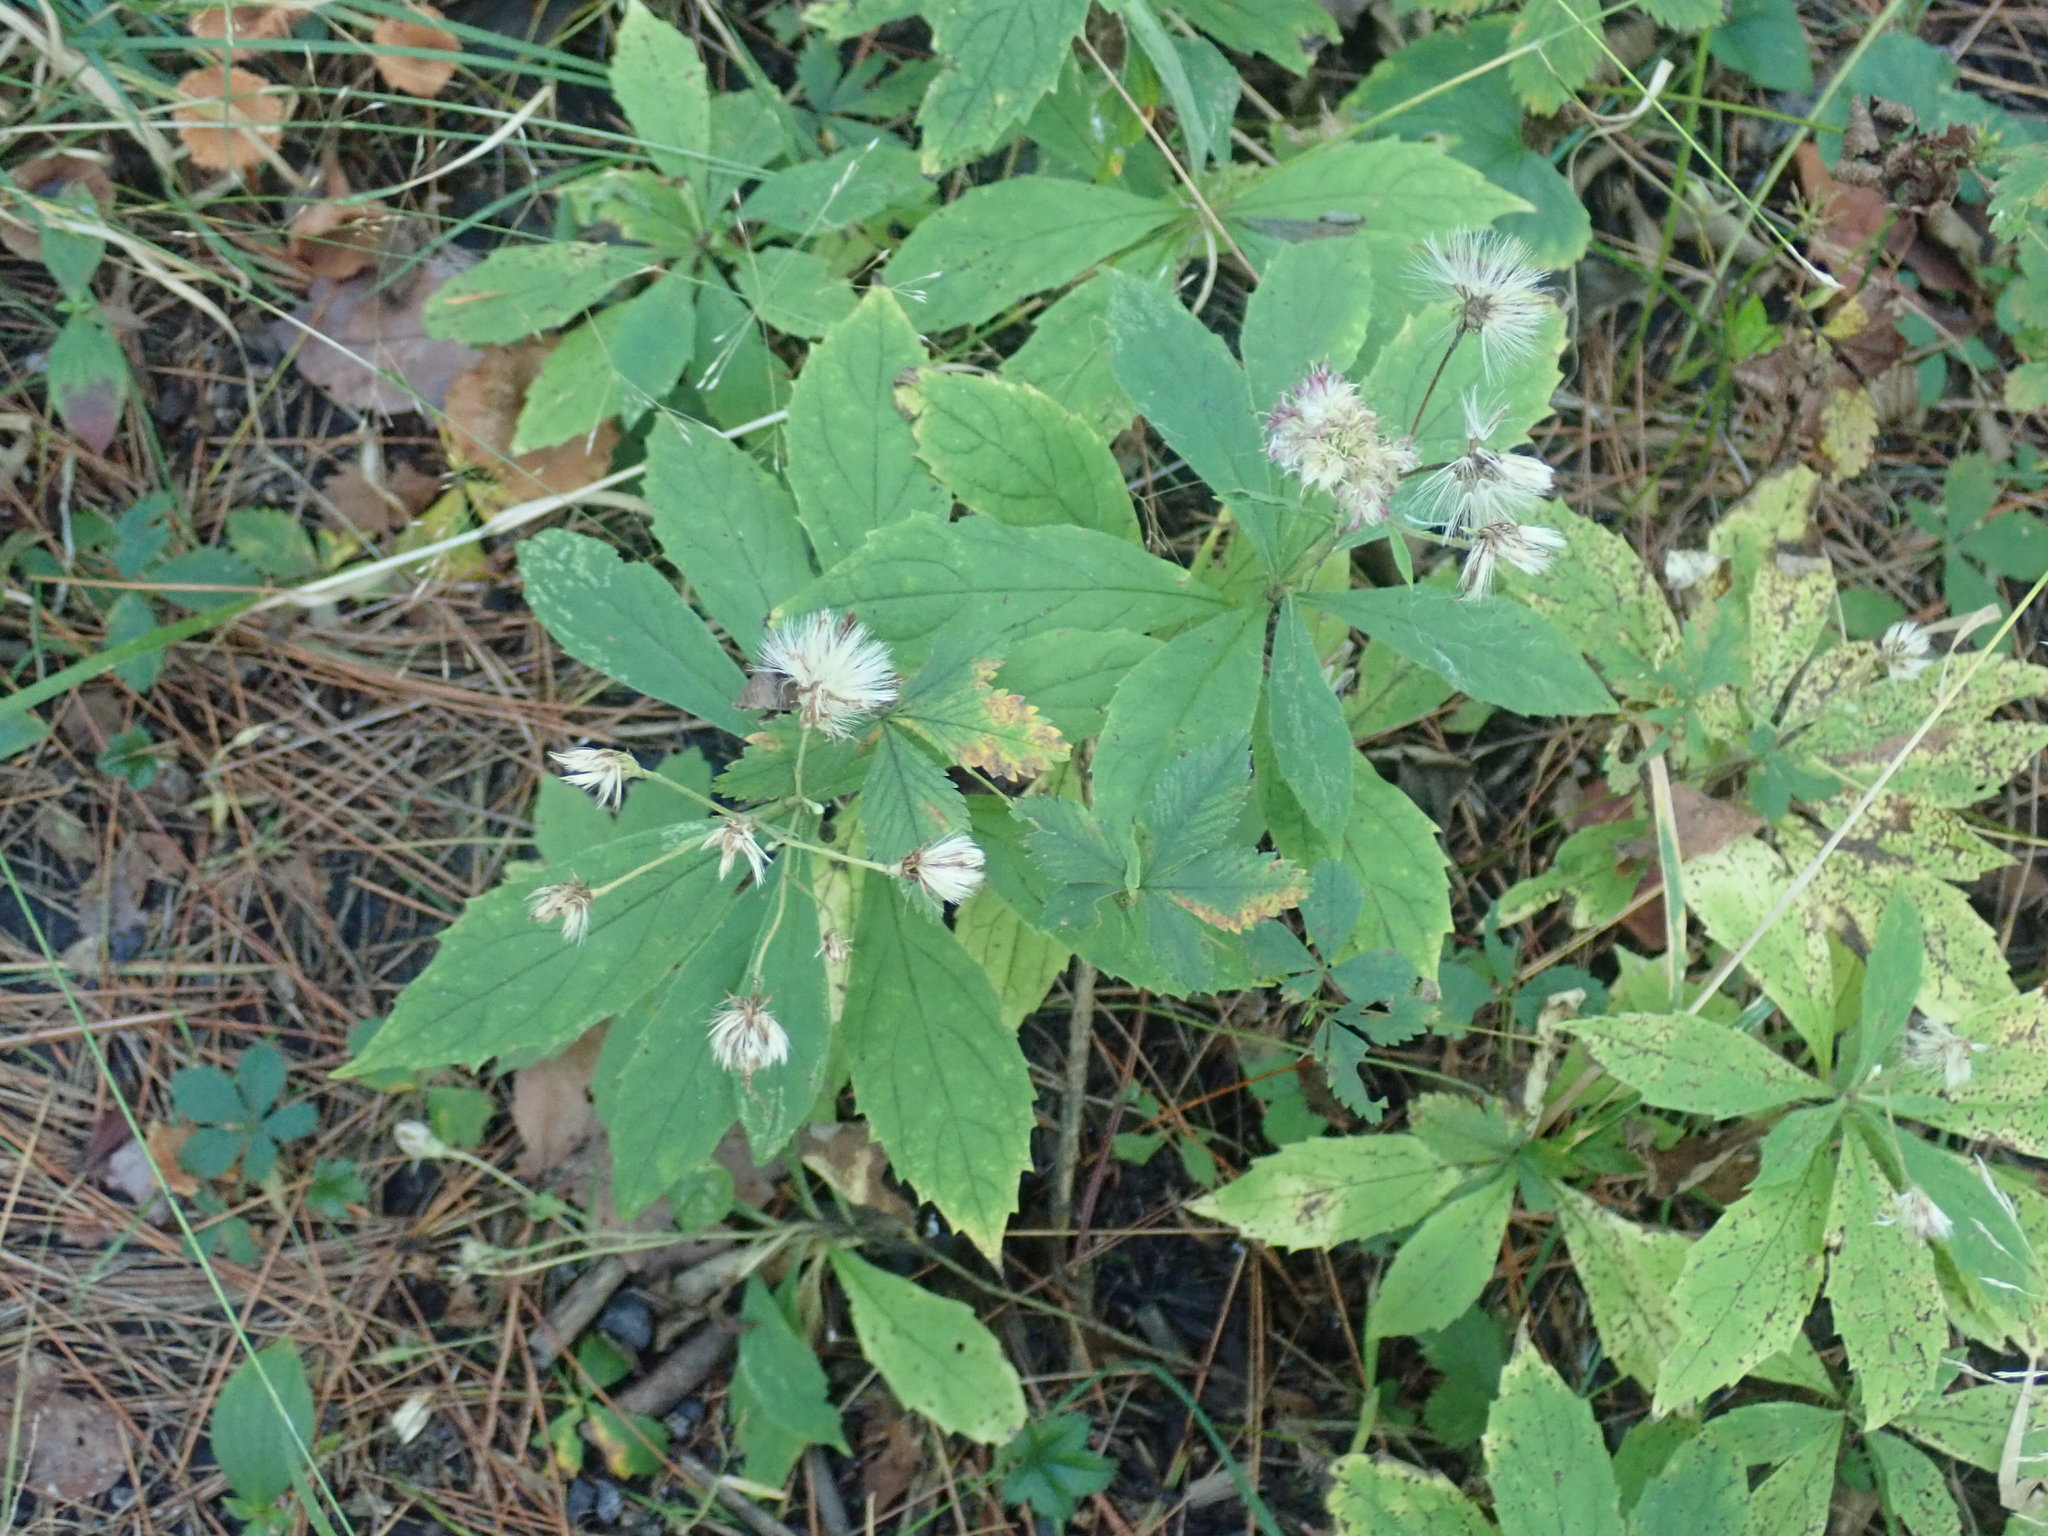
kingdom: Plantae
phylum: Tracheophyta
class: Magnoliopsida
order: Asterales
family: Asteraceae
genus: Oclemena
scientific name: Oclemena acuminata
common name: Mountain aster
